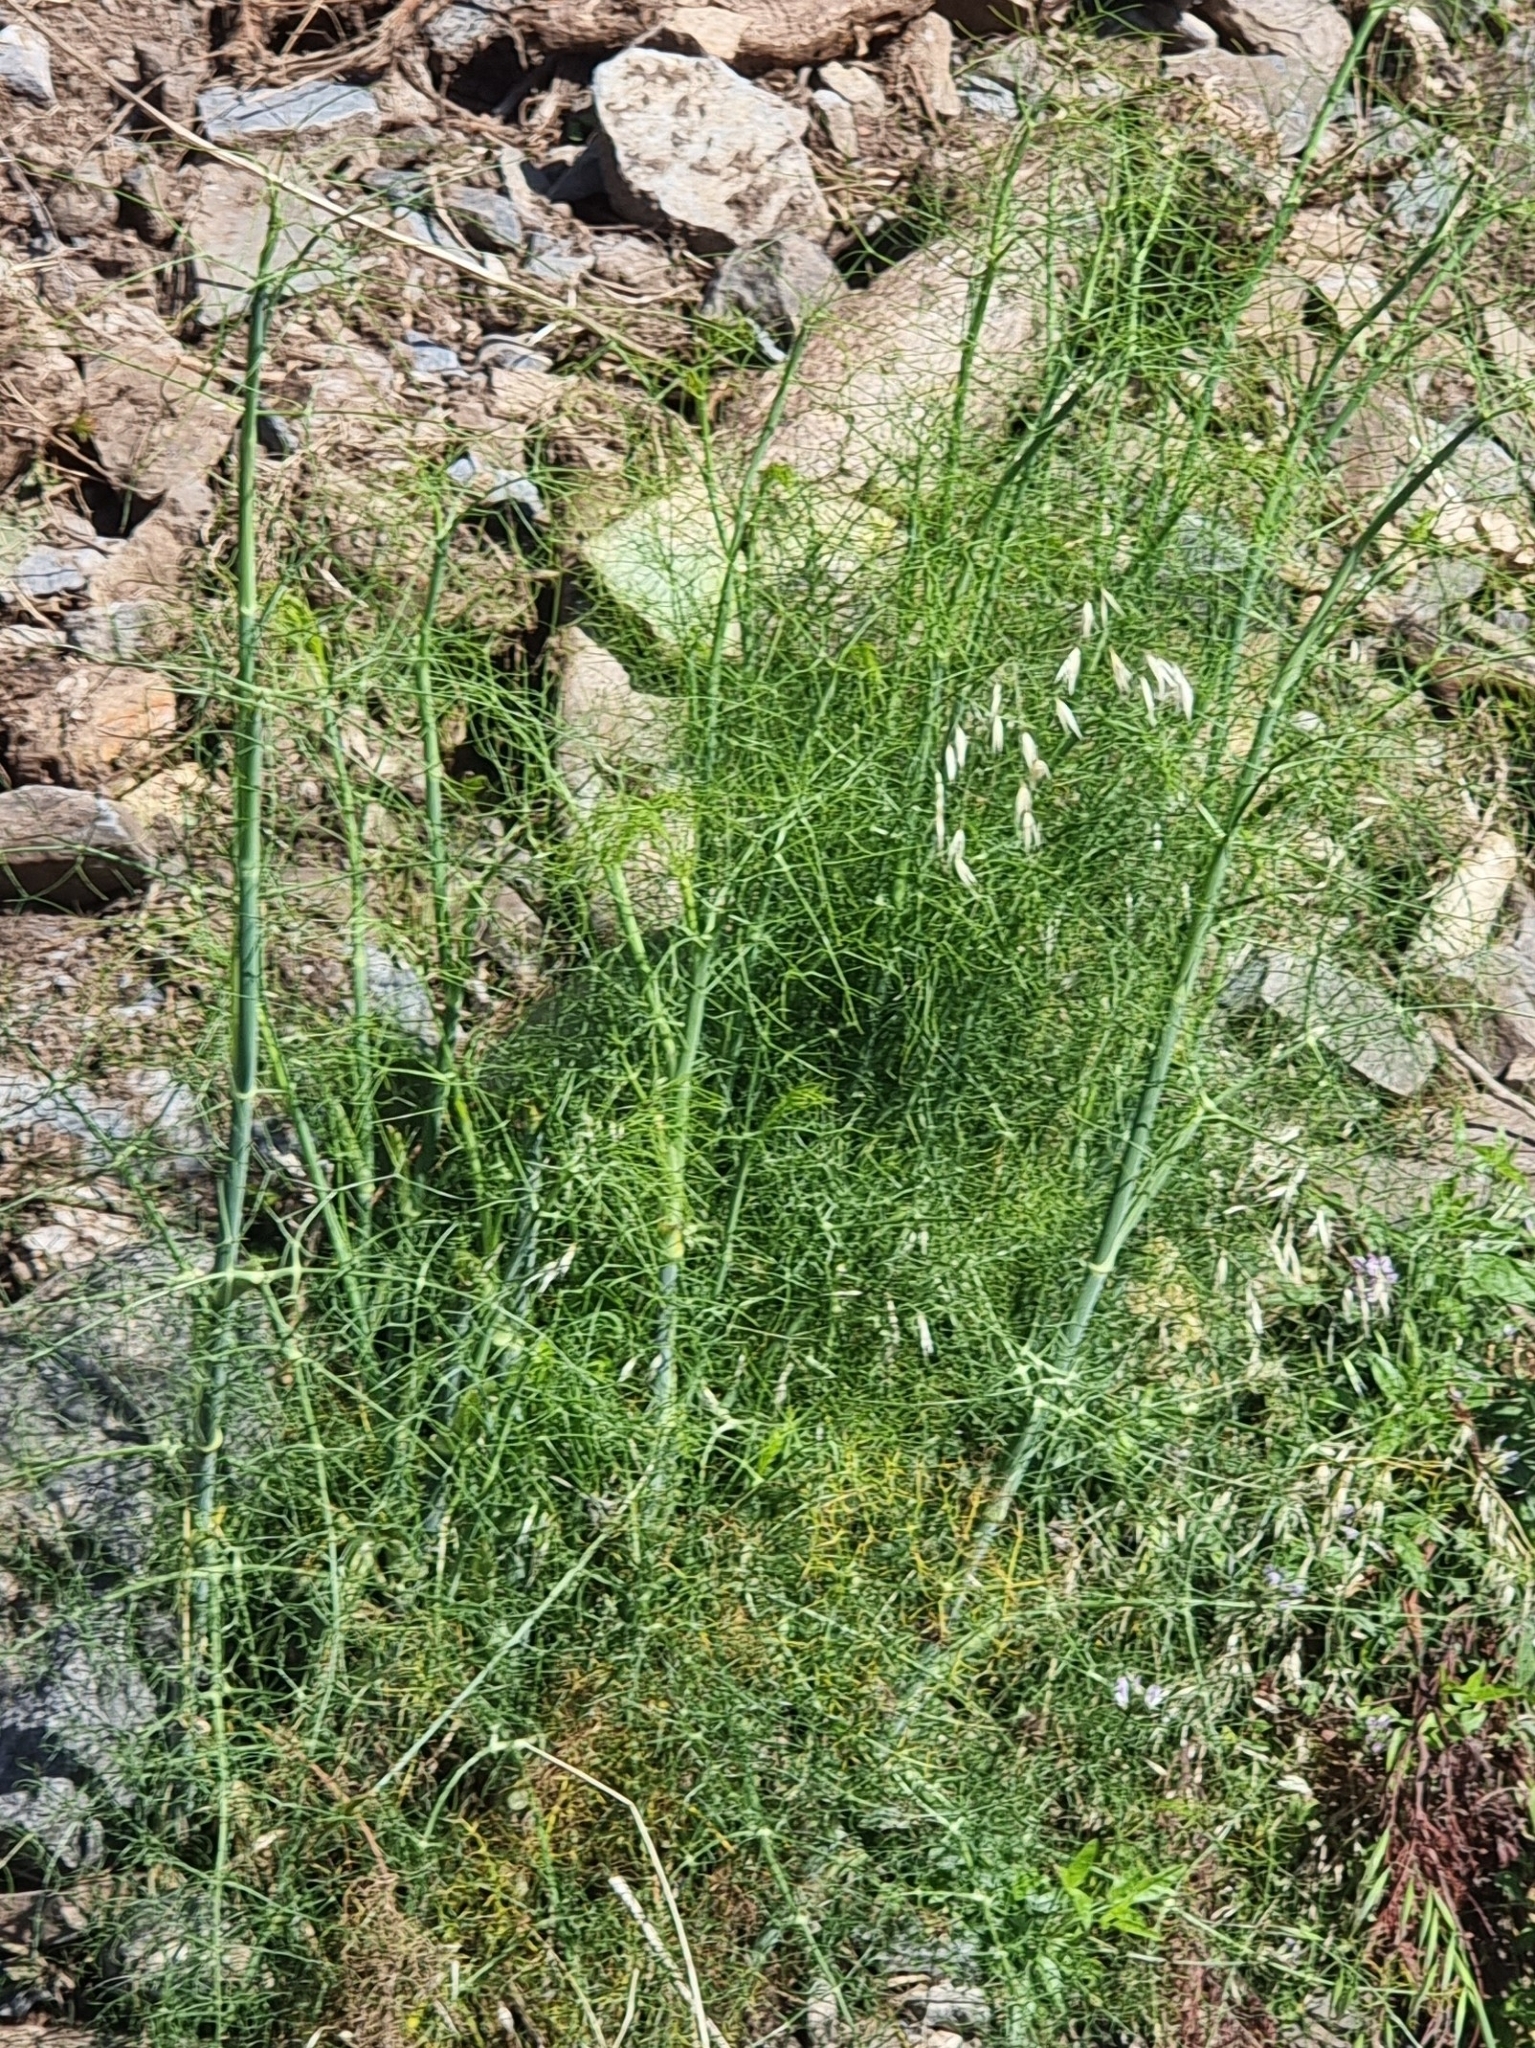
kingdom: Plantae
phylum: Tracheophyta
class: Magnoliopsida
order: Apiales
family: Apiaceae
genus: Foeniculum
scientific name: Foeniculum vulgare
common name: Fennel
